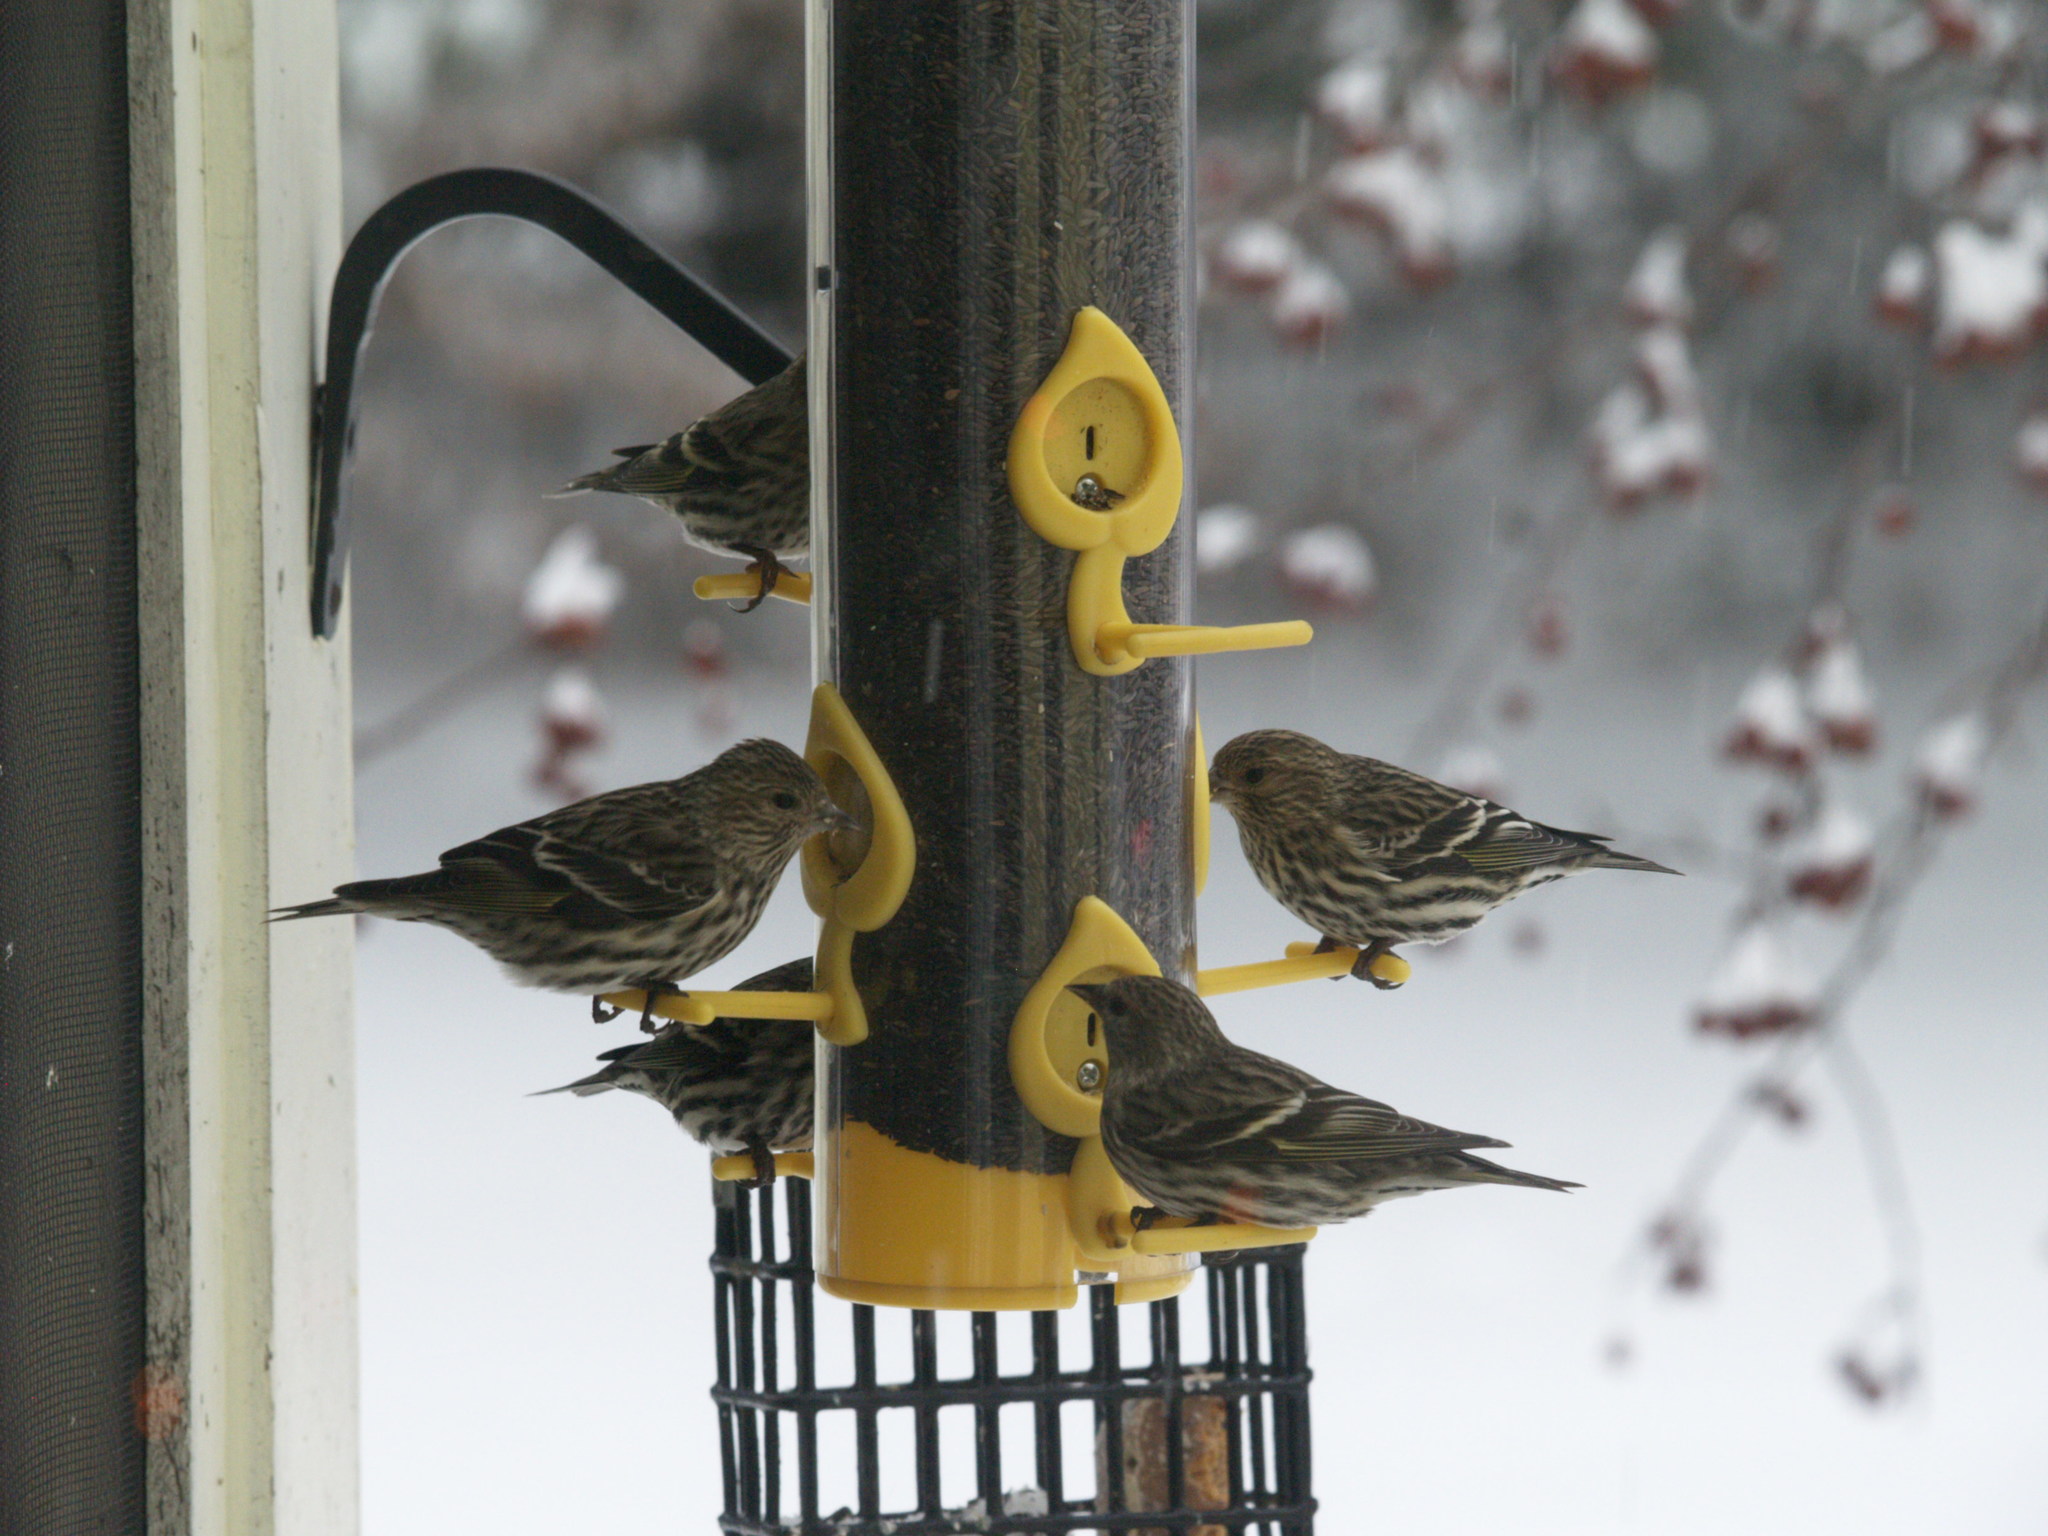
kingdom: Animalia
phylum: Chordata
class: Aves
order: Passeriformes
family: Fringillidae
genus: Spinus
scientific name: Spinus pinus
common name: Pine siskin
